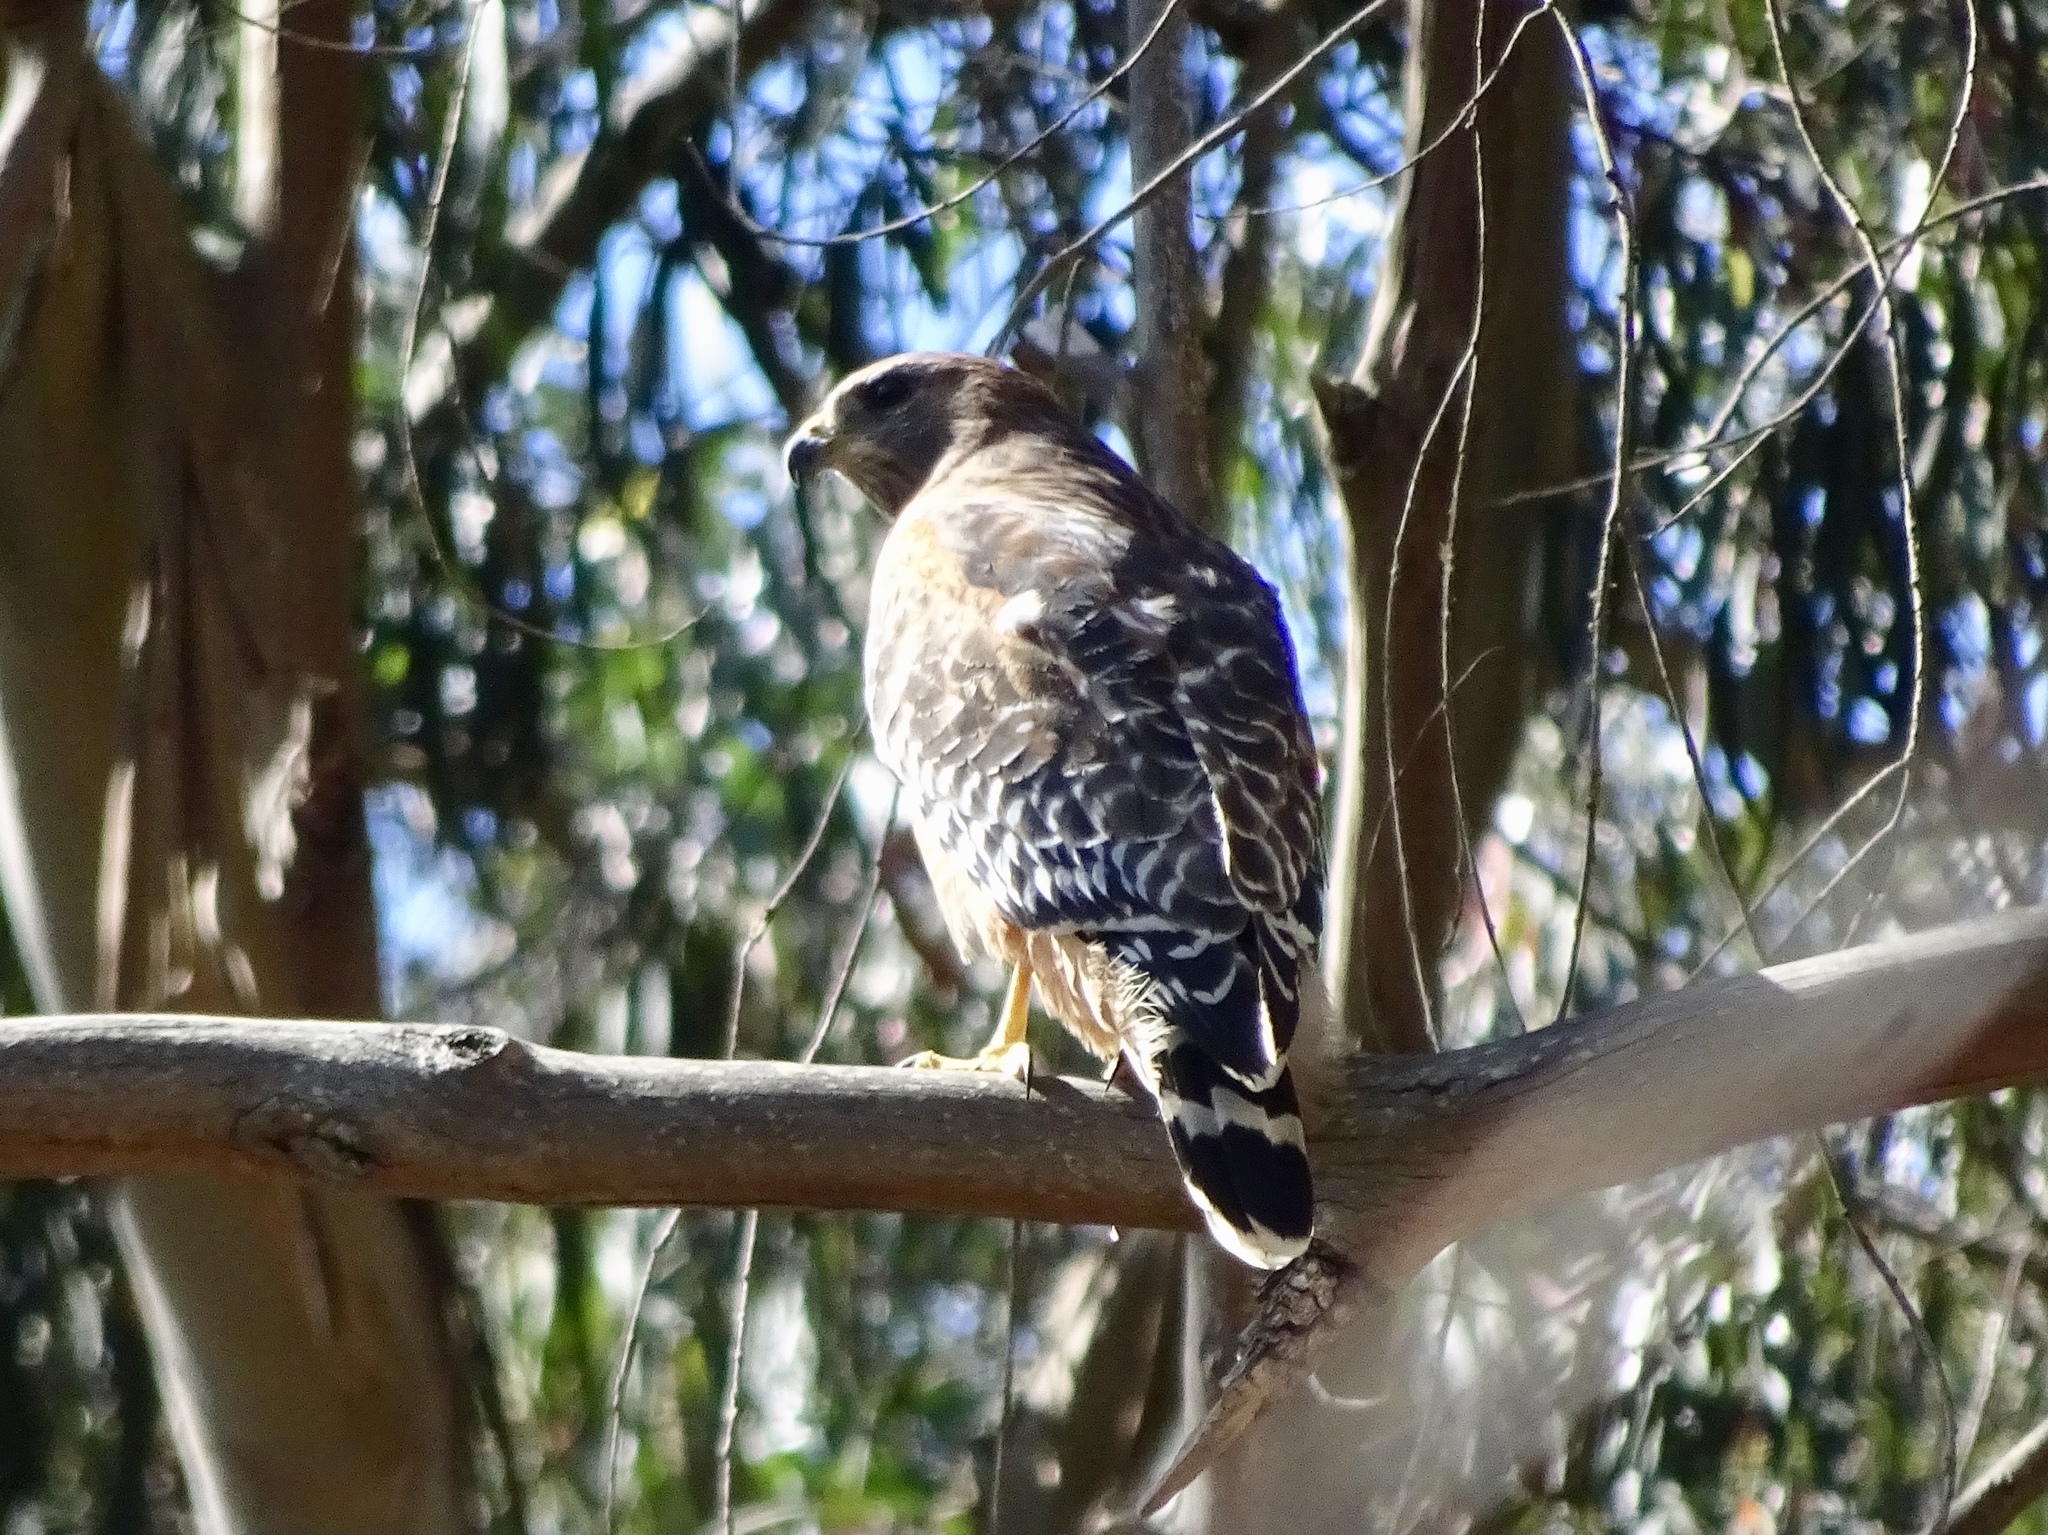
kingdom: Animalia
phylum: Chordata
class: Aves
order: Accipitriformes
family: Accipitridae
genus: Buteo
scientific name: Buteo lineatus
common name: Red-shouldered hawk
